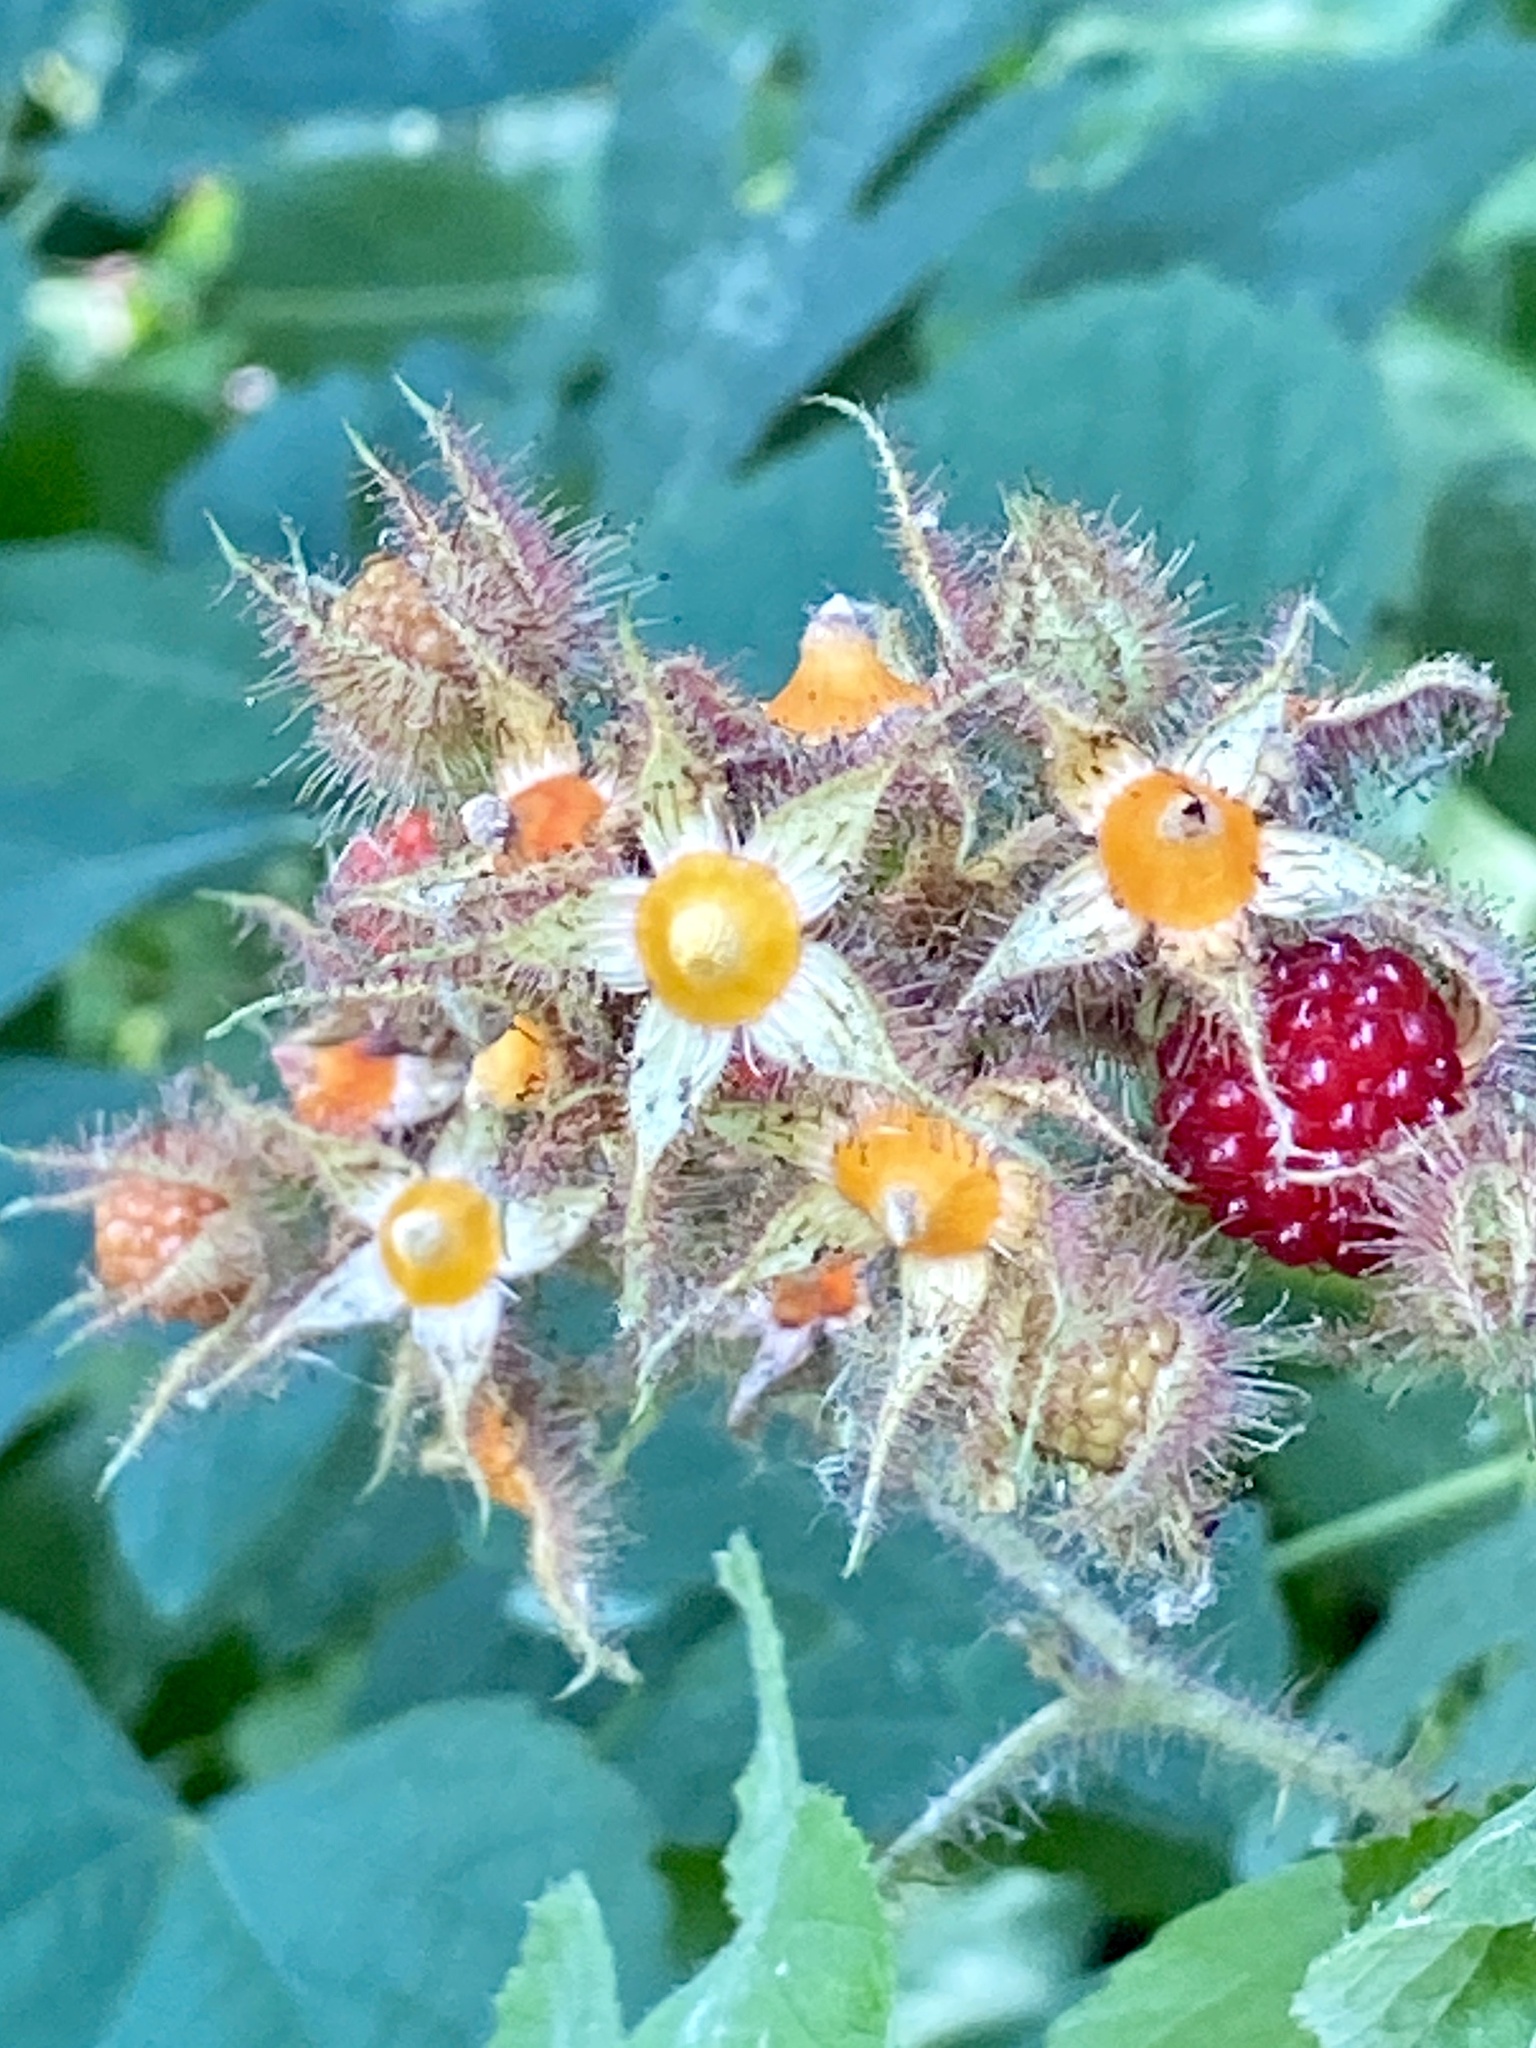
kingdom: Plantae
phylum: Tracheophyta
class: Magnoliopsida
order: Rosales
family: Rosaceae
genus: Rubus
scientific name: Rubus phoenicolasius
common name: Japanese wineberry
